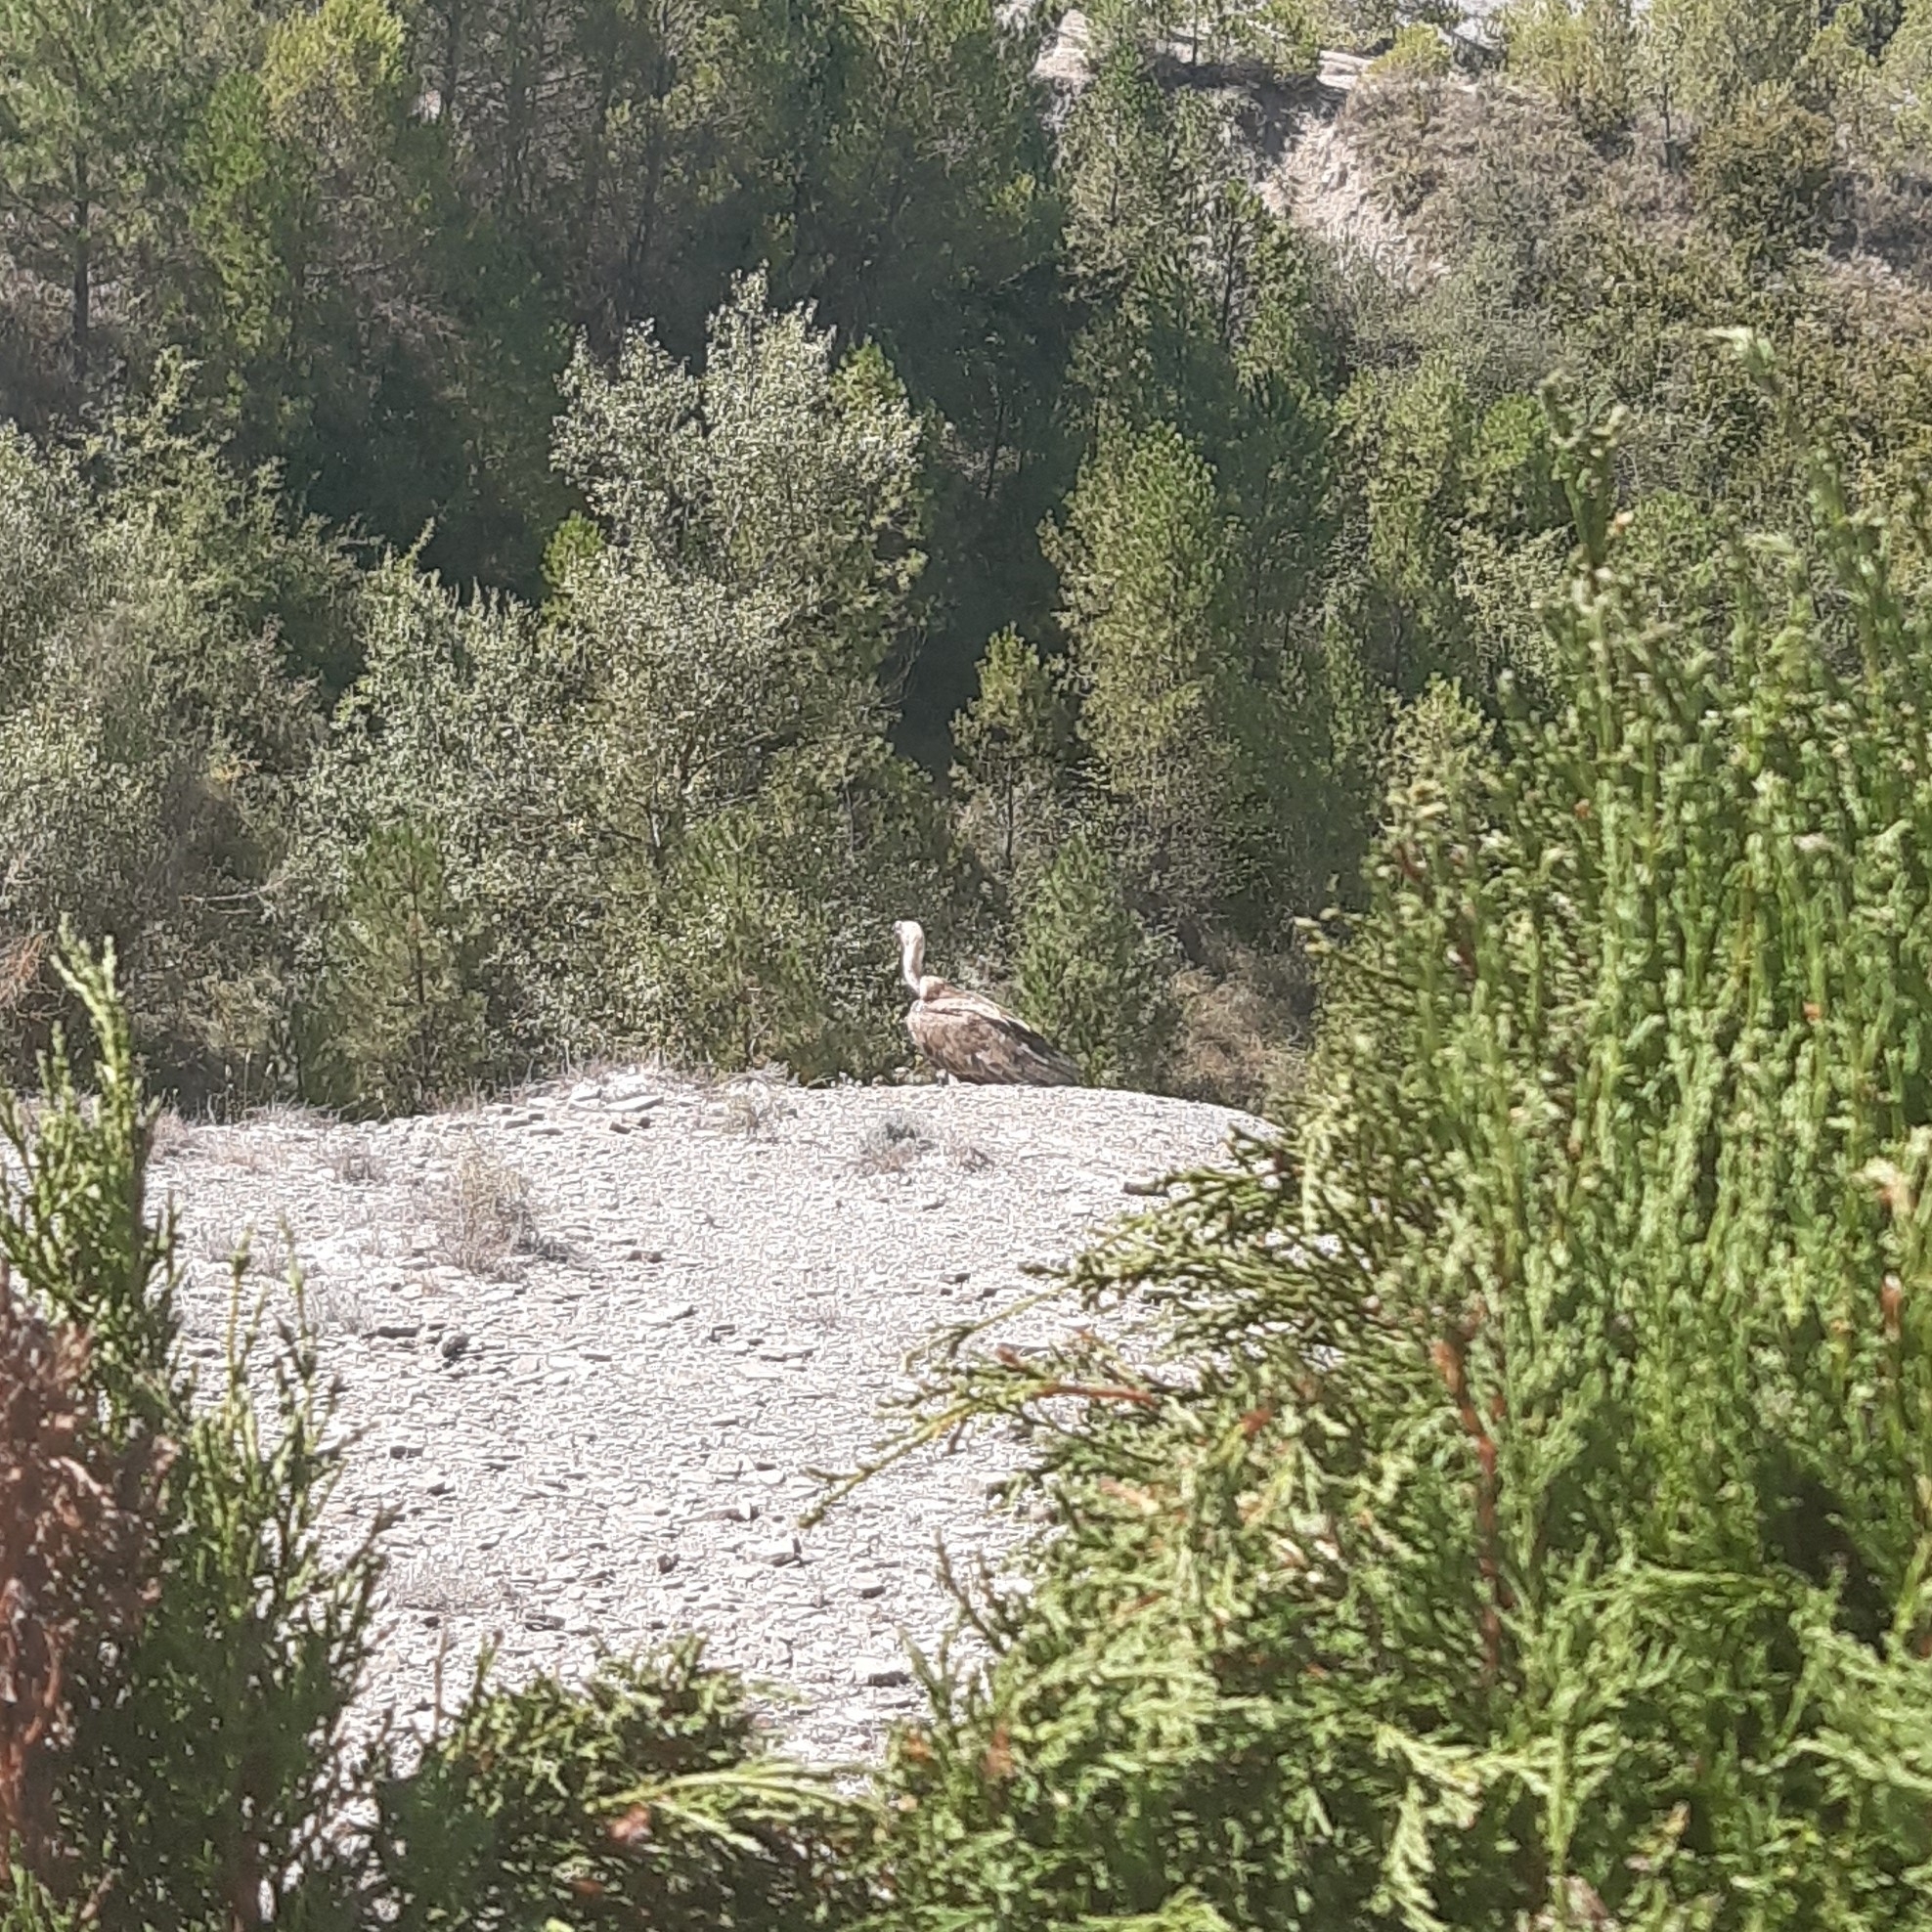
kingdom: Animalia
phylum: Chordata
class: Aves
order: Accipitriformes
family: Accipitridae
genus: Gyps
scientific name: Gyps fulvus
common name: Griffon vulture
